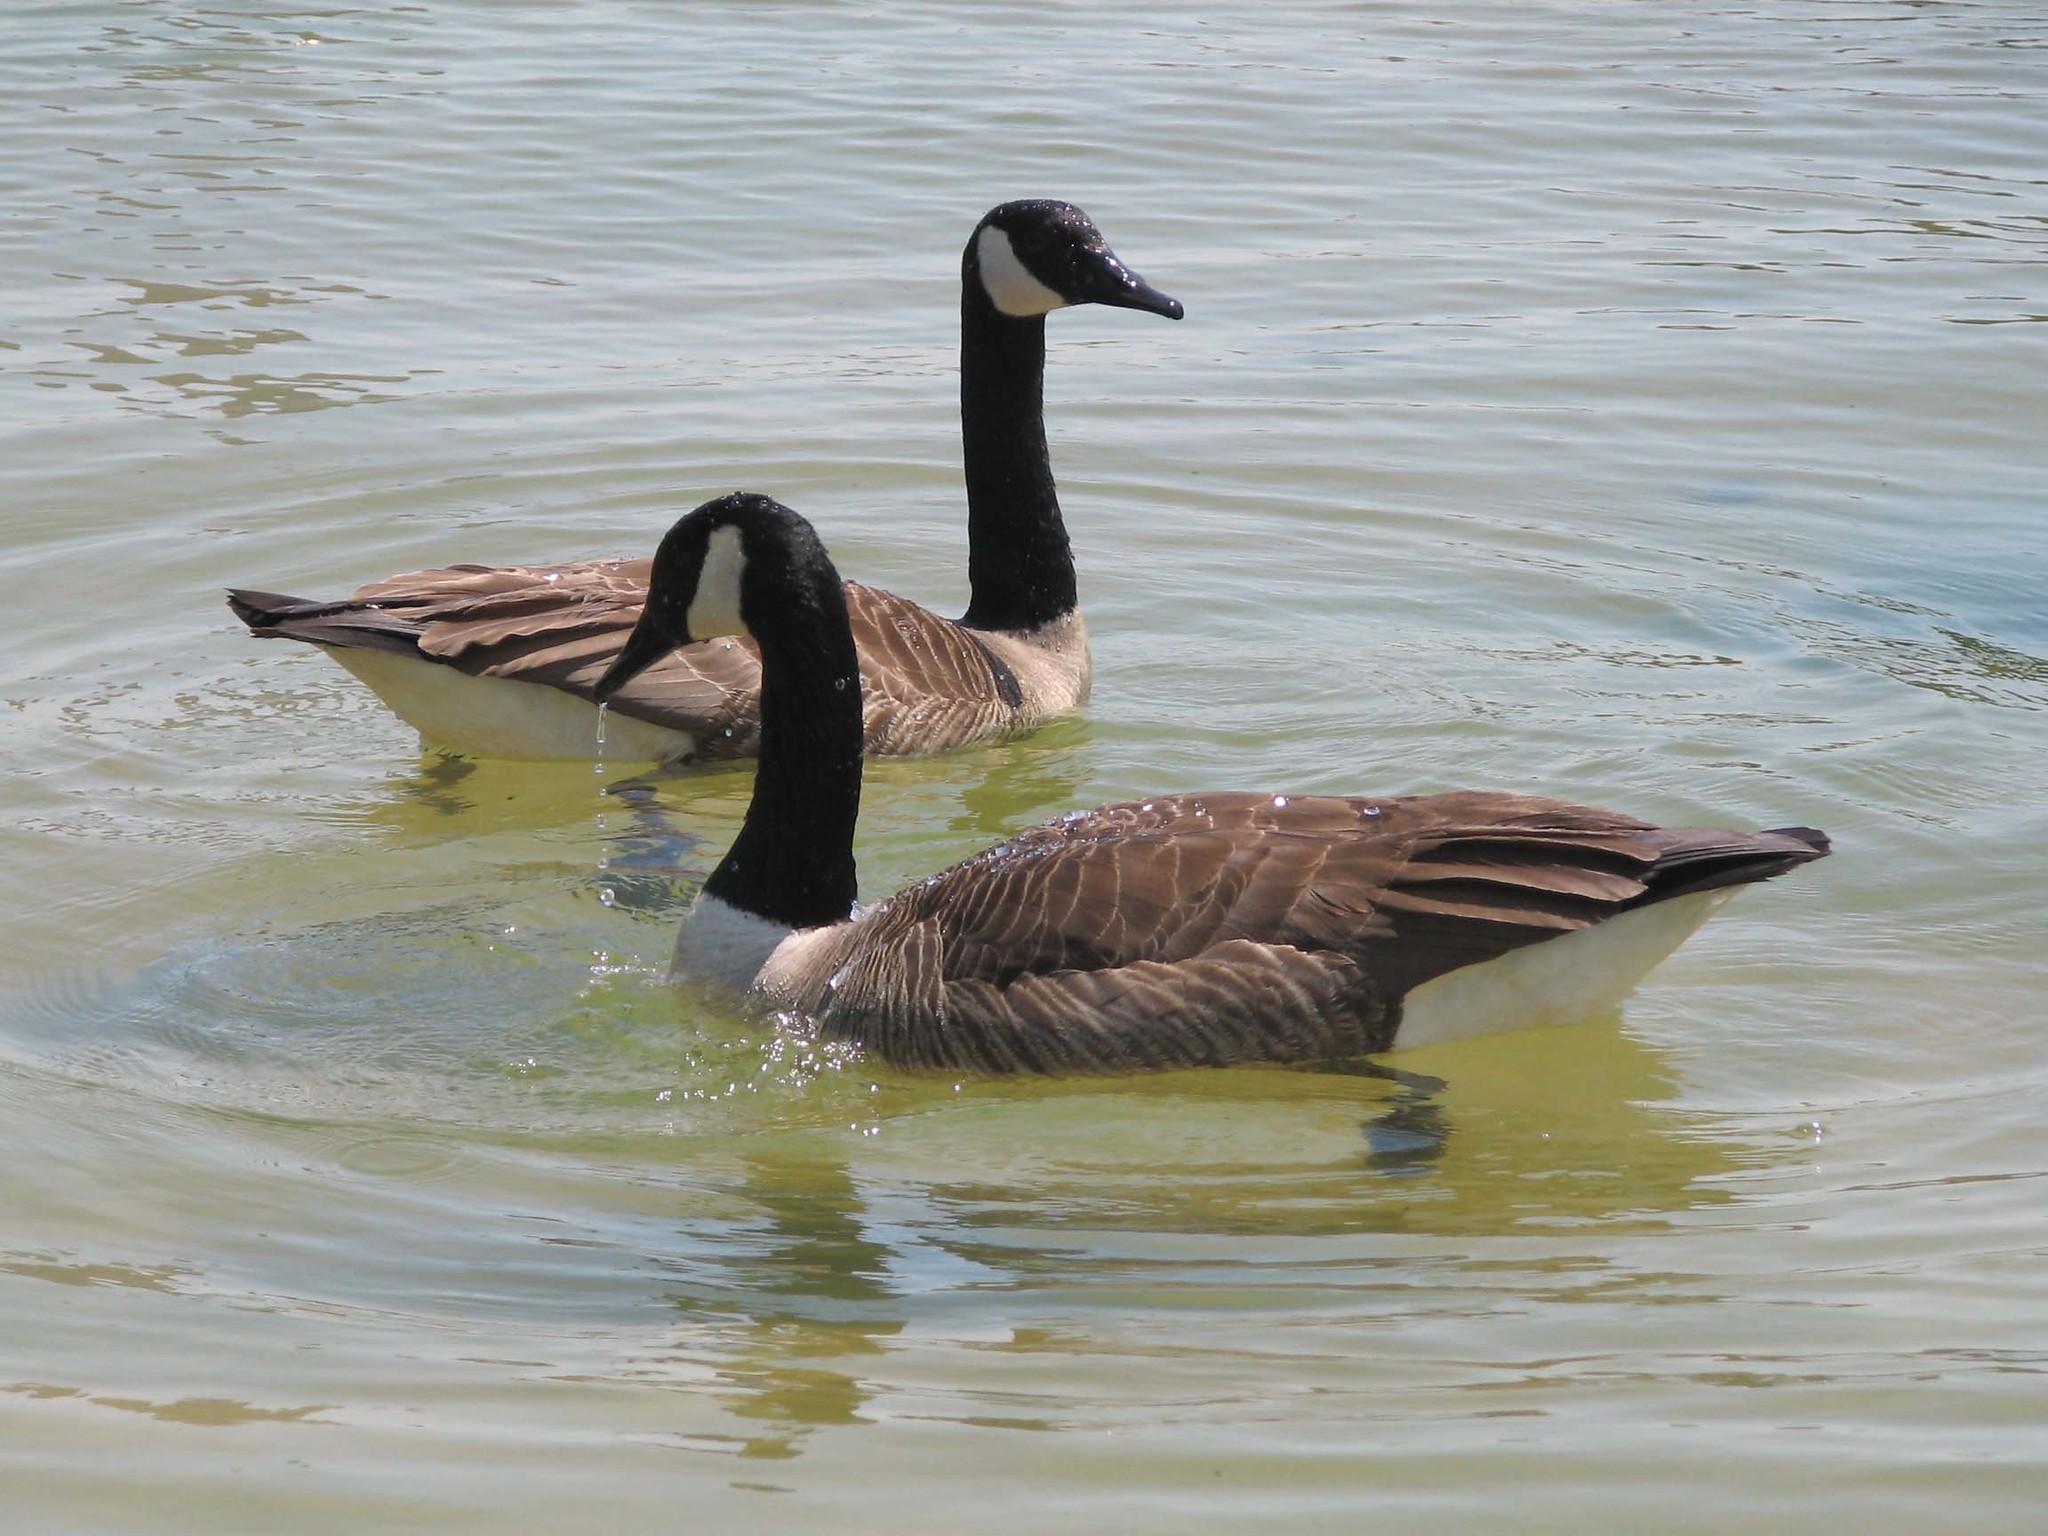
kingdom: Animalia
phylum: Chordata
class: Aves
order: Anseriformes
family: Anatidae
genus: Branta
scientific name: Branta canadensis
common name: Canada goose
